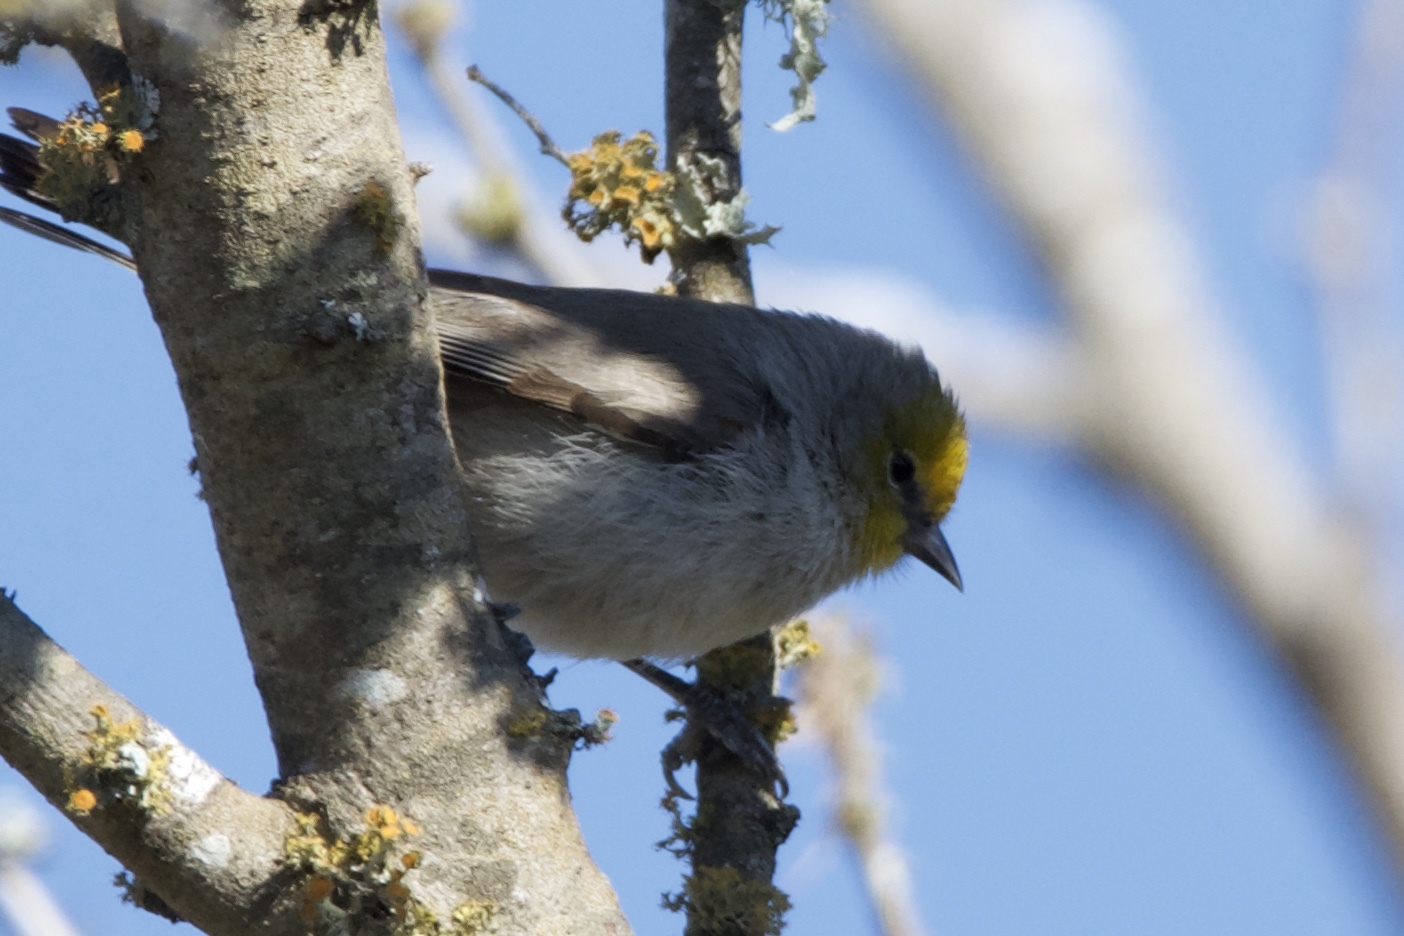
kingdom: Animalia
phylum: Chordata
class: Aves
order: Passeriformes
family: Remizidae
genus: Auriparus
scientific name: Auriparus flaviceps
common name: Verdin
